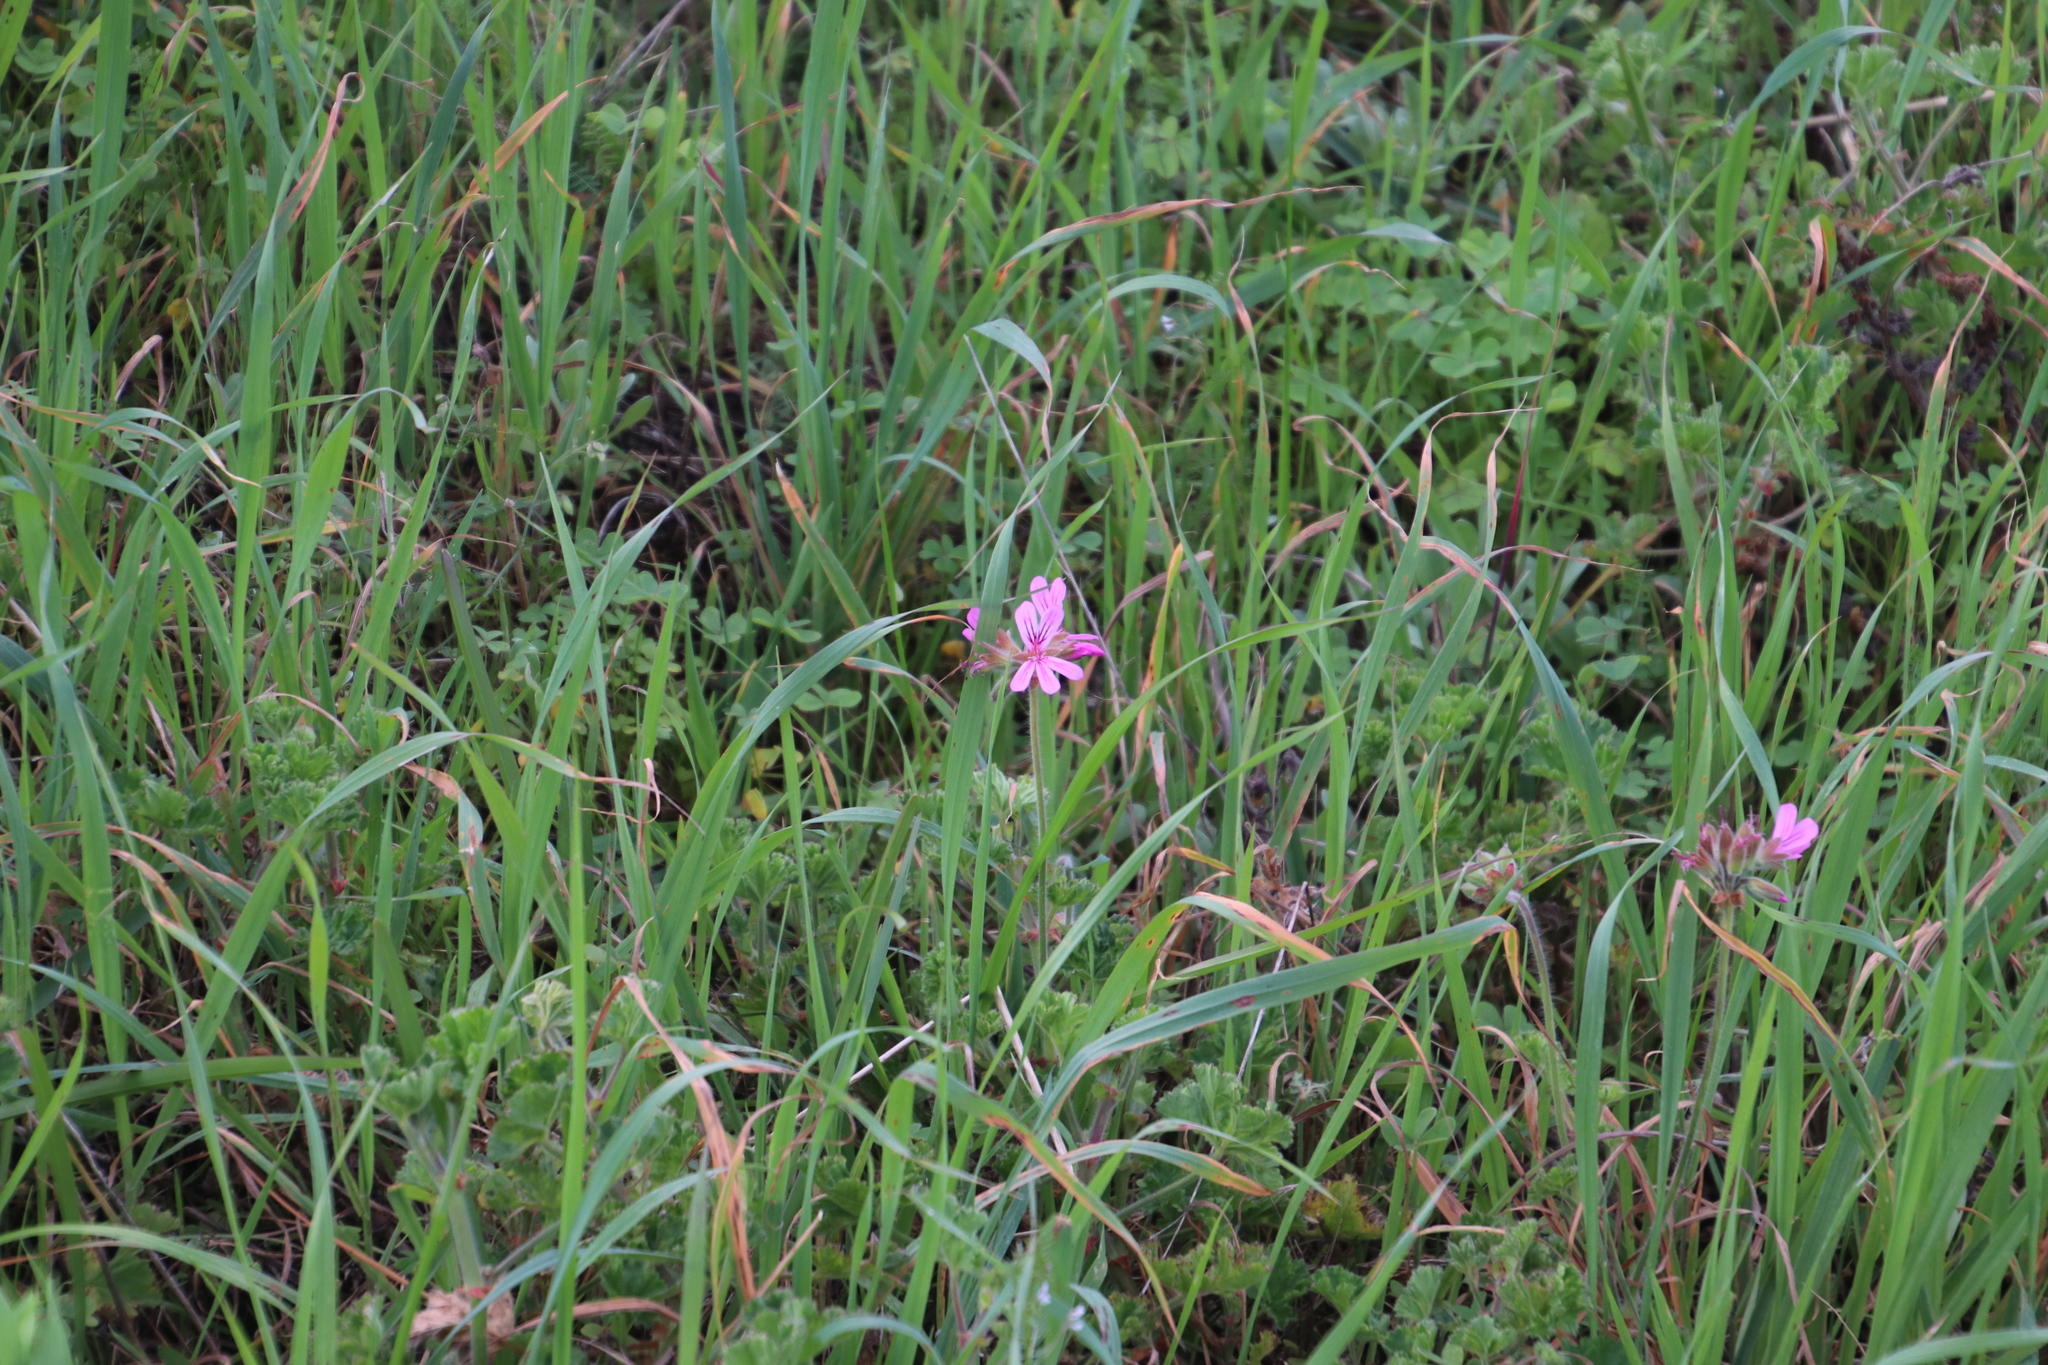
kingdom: Plantae
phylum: Tracheophyta
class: Magnoliopsida
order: Geraniales
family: Geraniaceae
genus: Pelargonium
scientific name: Pelargonium capitatum
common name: Rose scented geranium
